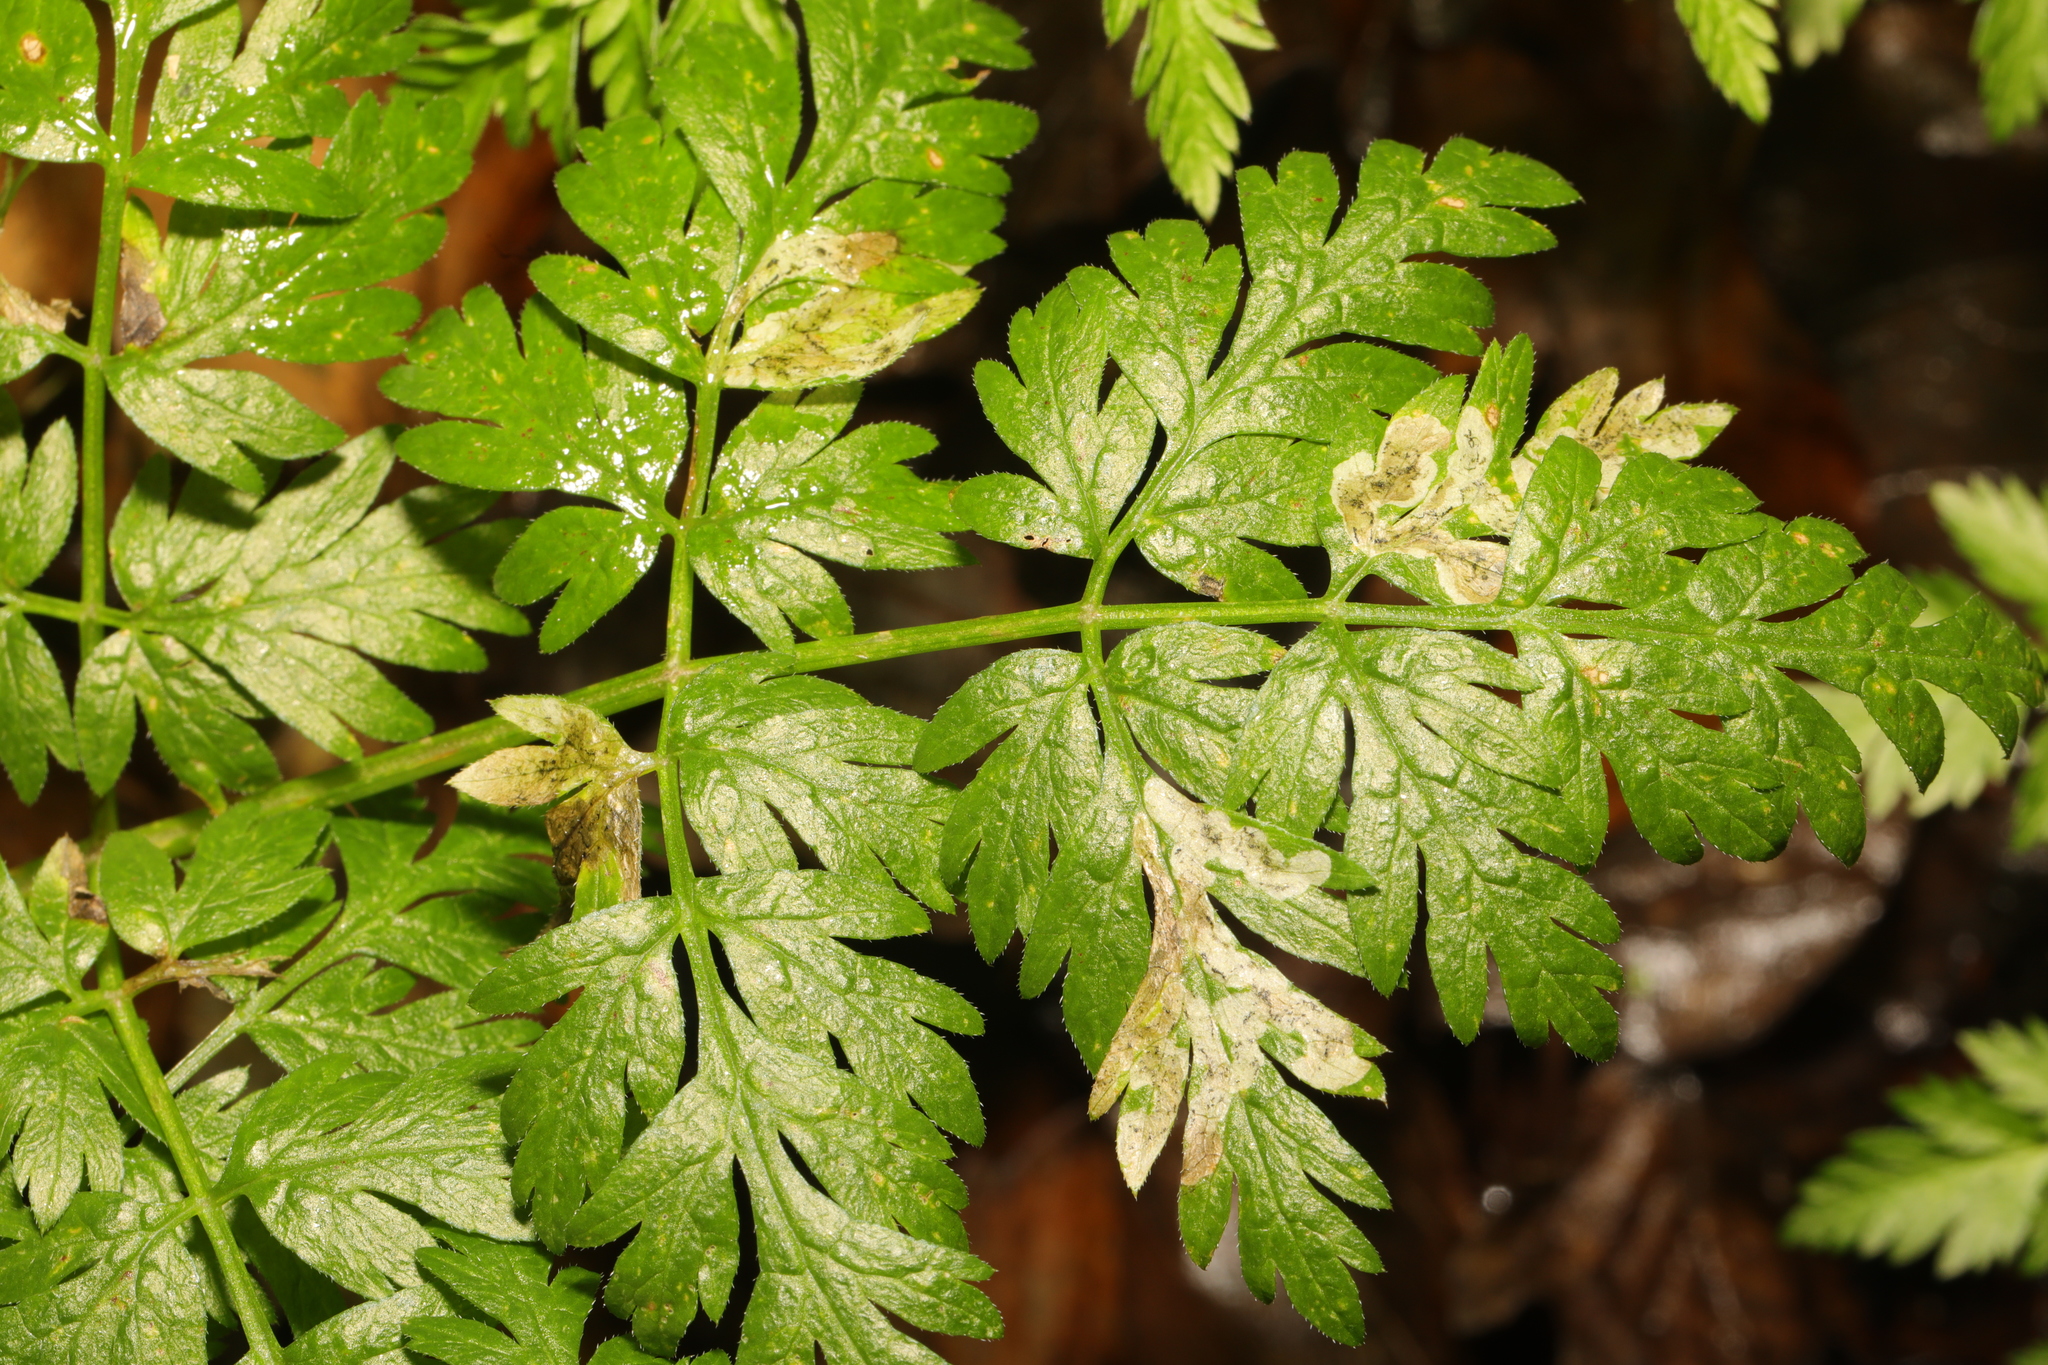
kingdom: Animalia
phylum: Arthropoda
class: Insecta
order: Diptera
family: Agromyzidae
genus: Phytomyza
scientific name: Phytomyza chaerophylli
